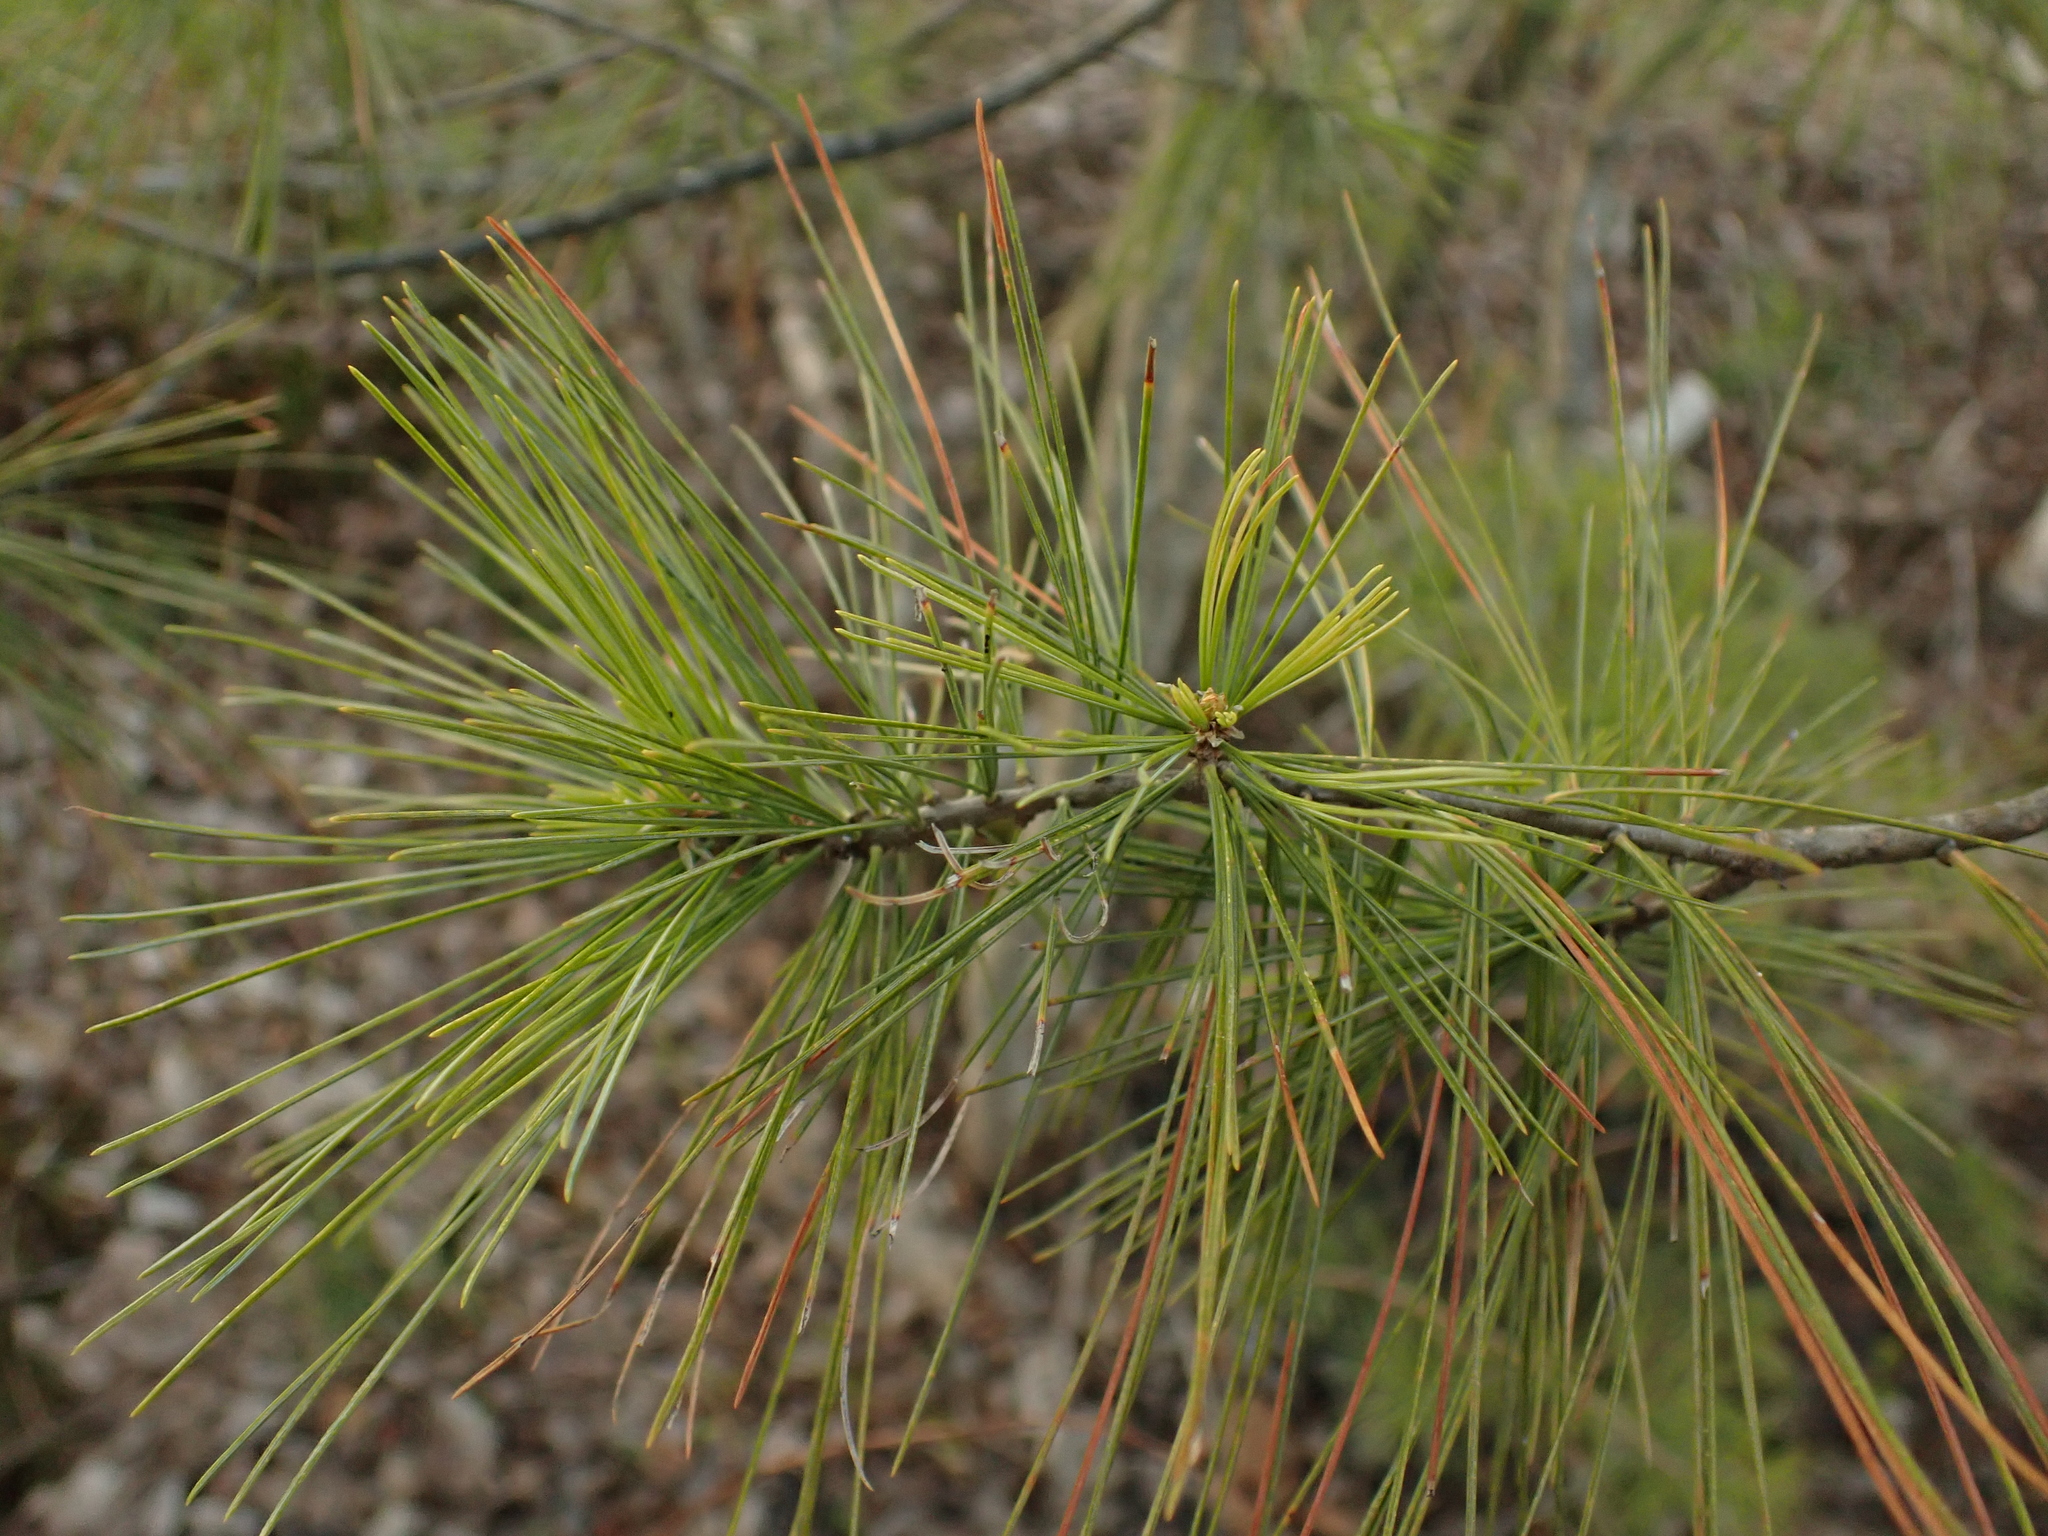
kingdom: Plantae
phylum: Tracheophyta
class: Pinopsida
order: Pinales
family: Pinaceae
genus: Pinus
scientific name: Pinus strobus
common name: Weymouth pine
